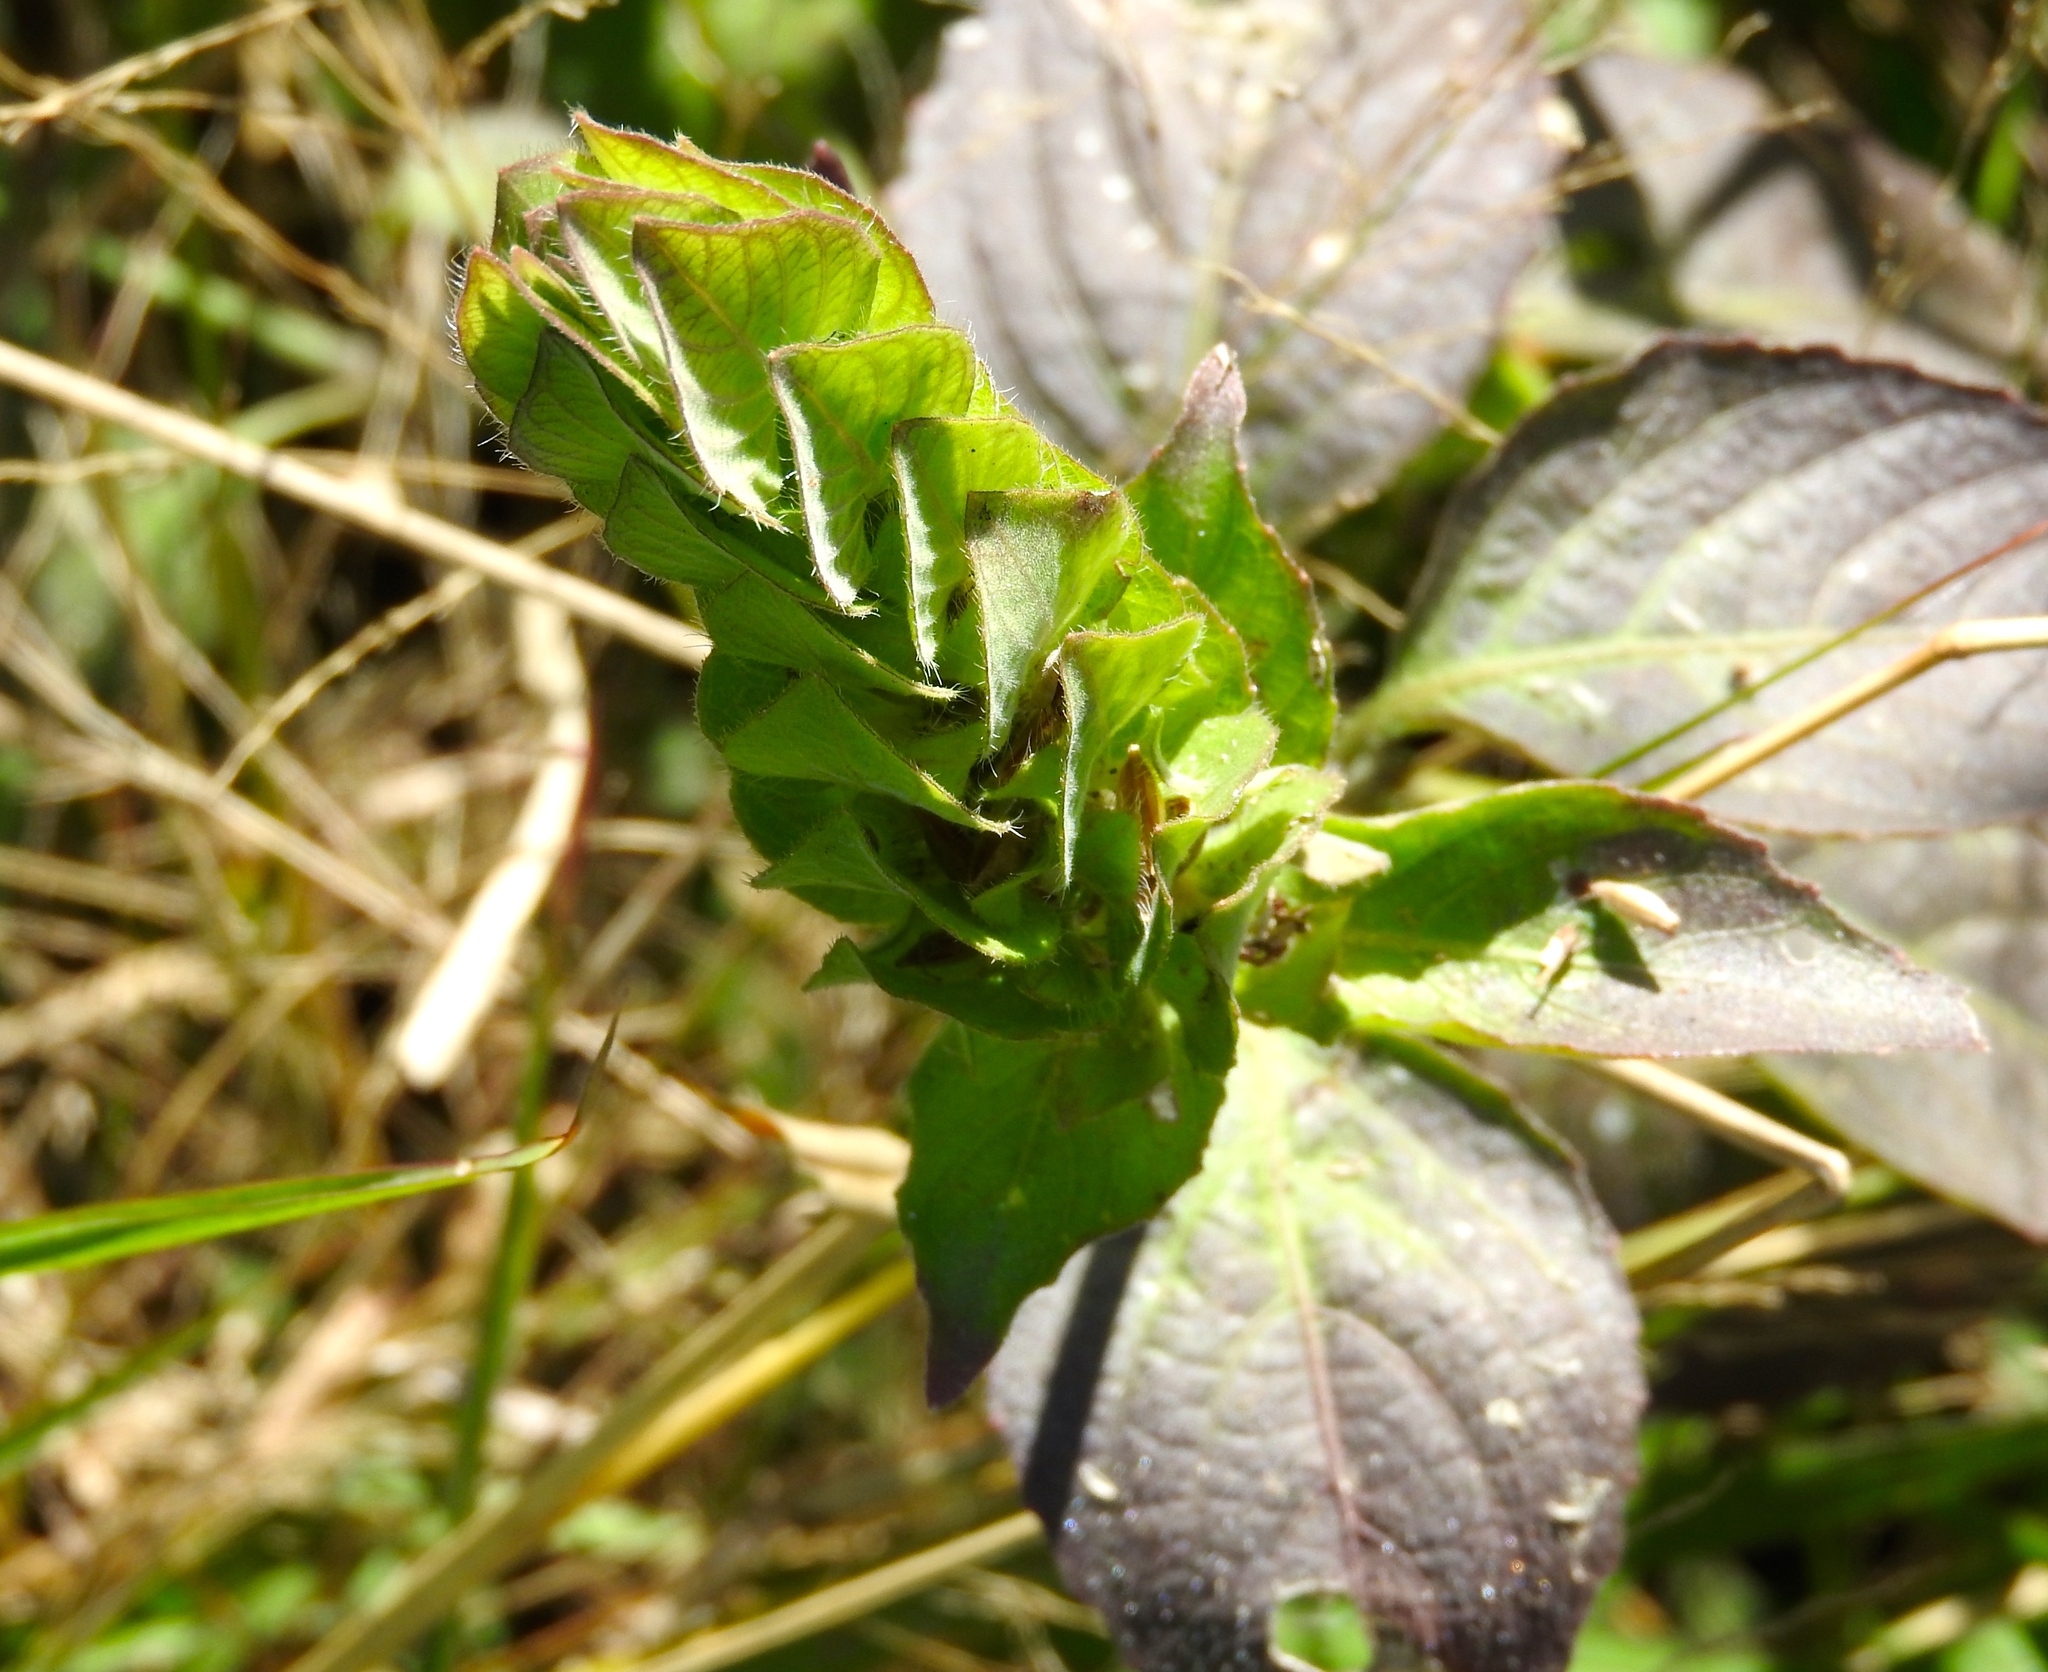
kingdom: Plantae
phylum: Tracheophyta
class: Magnoliopsida
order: Lamiales
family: Acanthaceae
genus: Ruellia
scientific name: Ruellia blechum
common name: Browne's blechum
